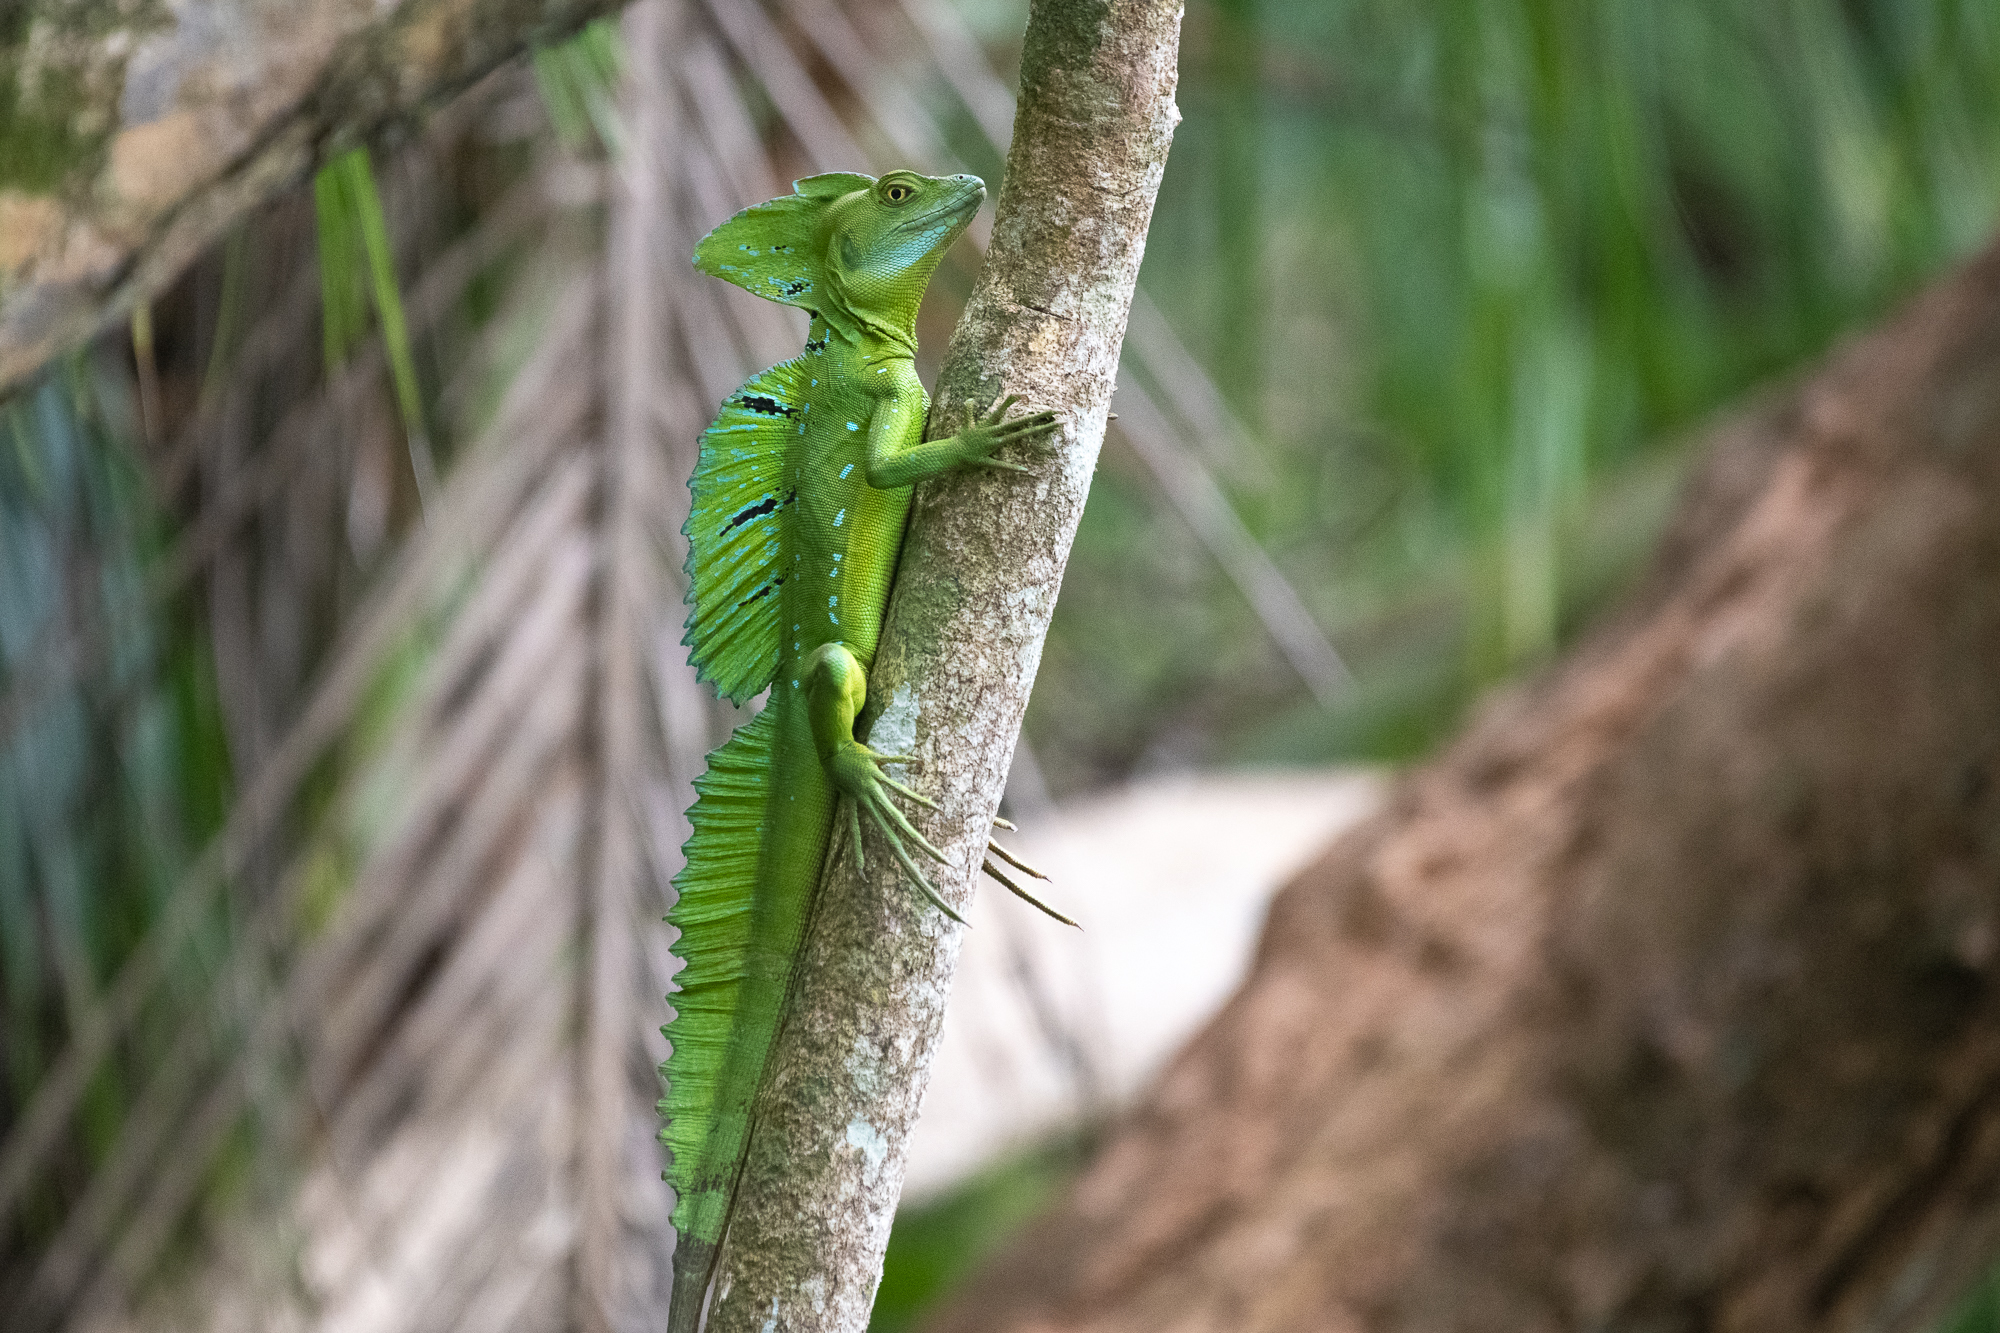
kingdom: Animalia
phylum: Chordata
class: Squamata
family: Corytophanidae
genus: Basiliscus
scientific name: Basiliscus plumifrons
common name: Green basilisk
